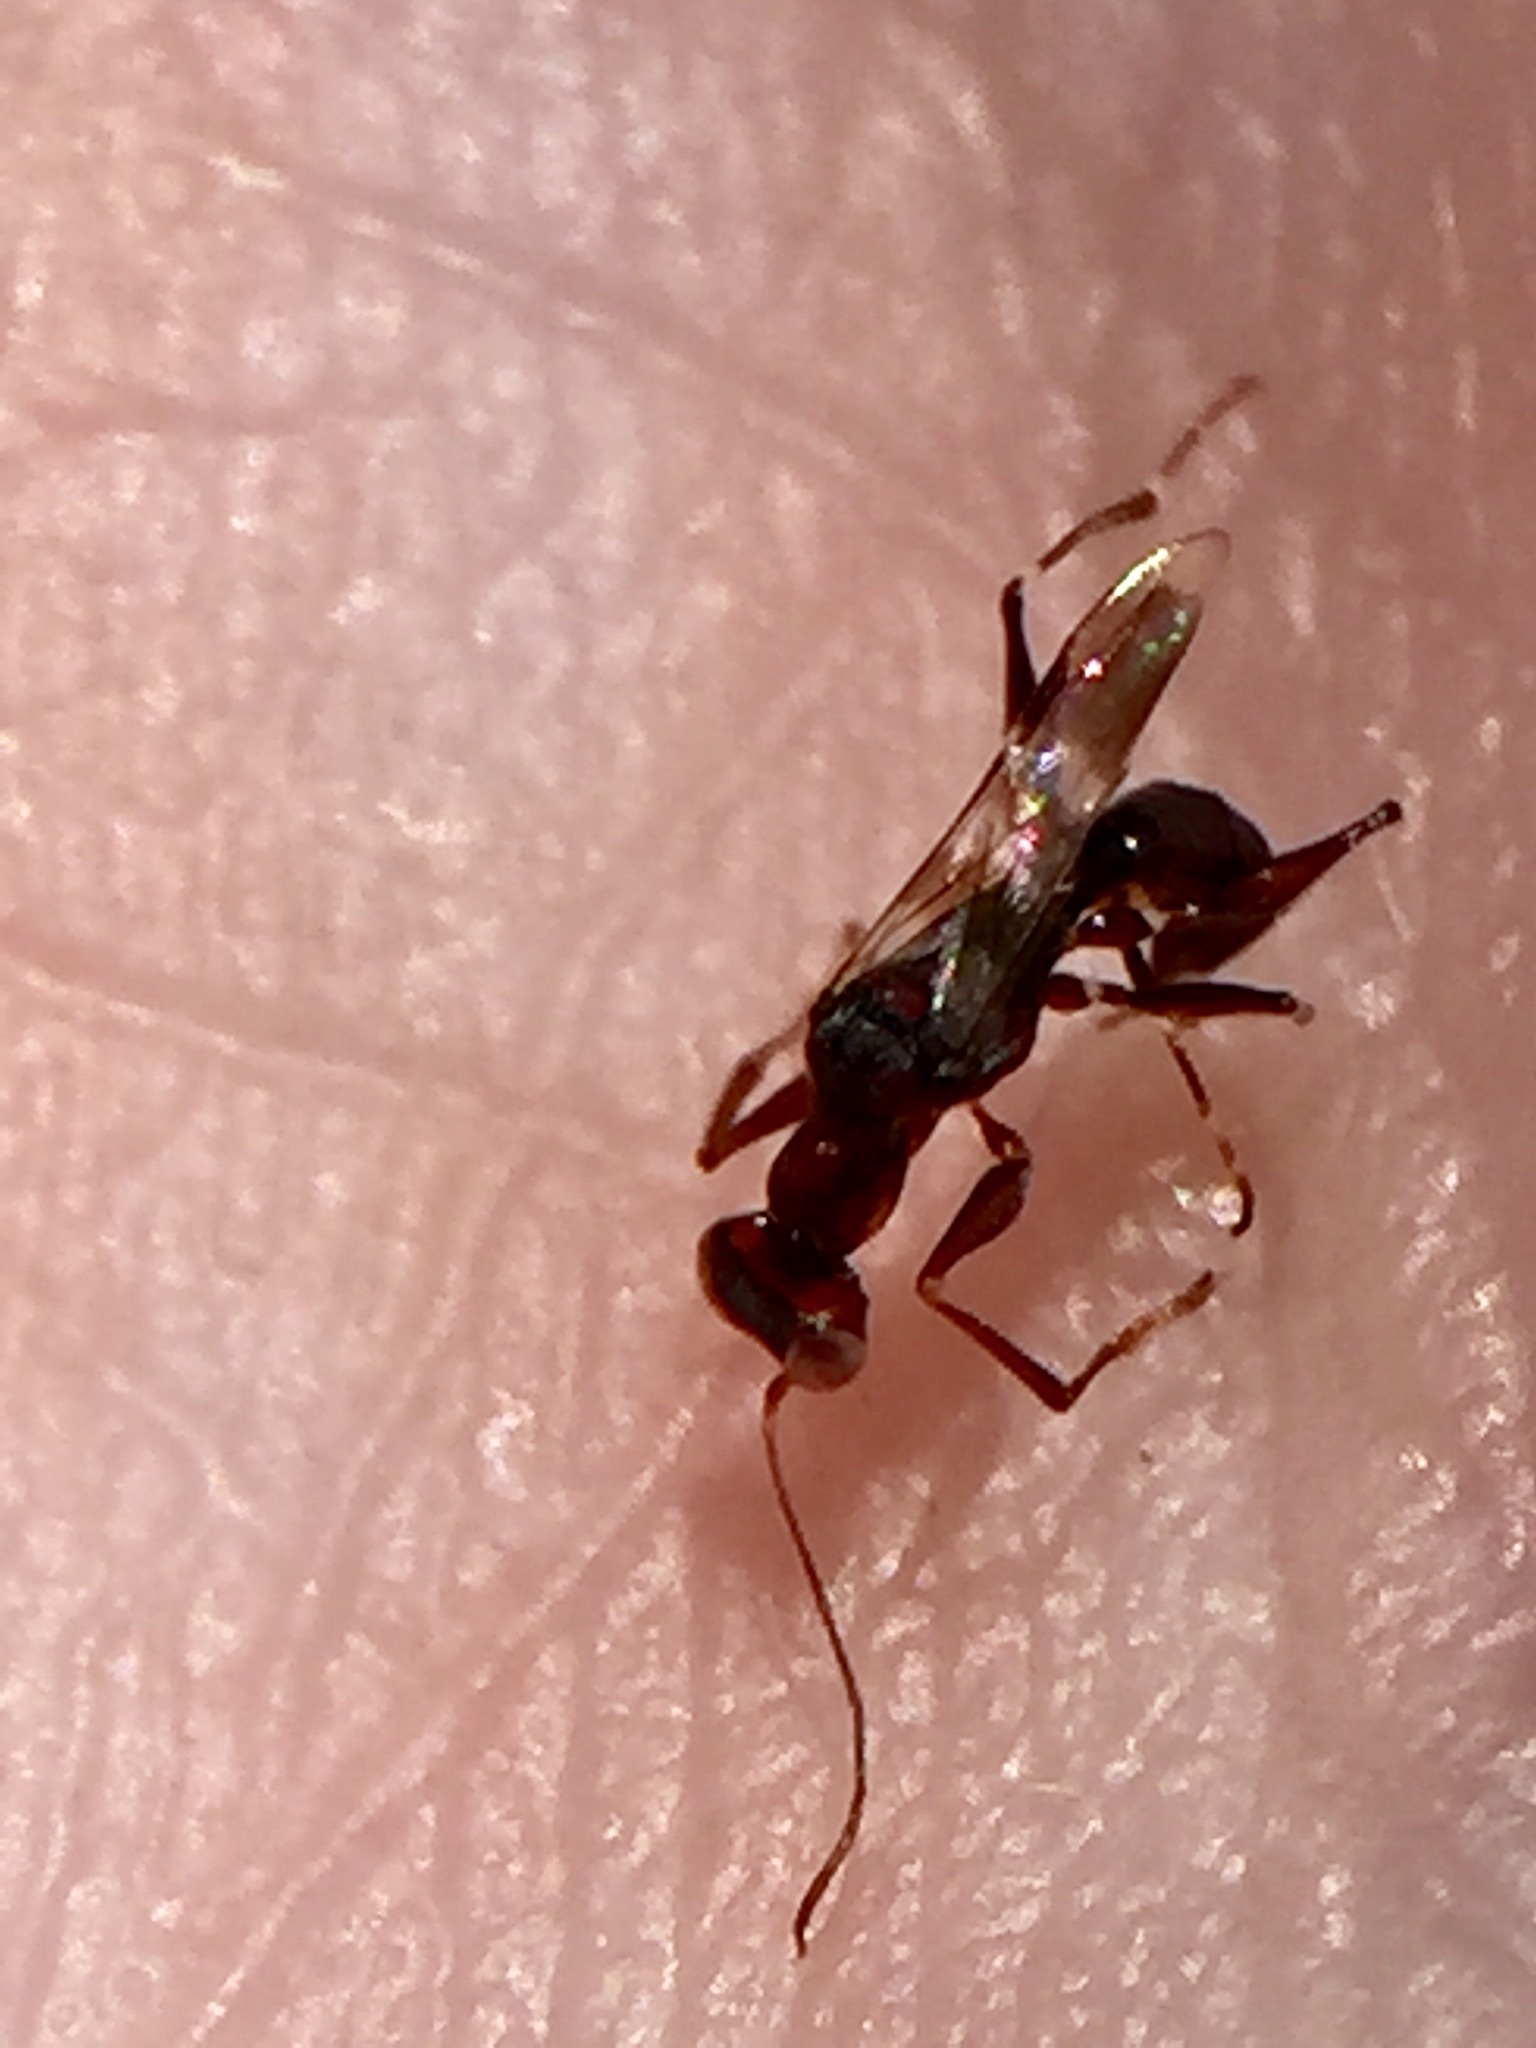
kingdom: Animalia
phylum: Arthropoda
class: Insecta
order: Hymenoptera
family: Dryinidae
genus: Dryinus
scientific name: Dryinus koebelei
